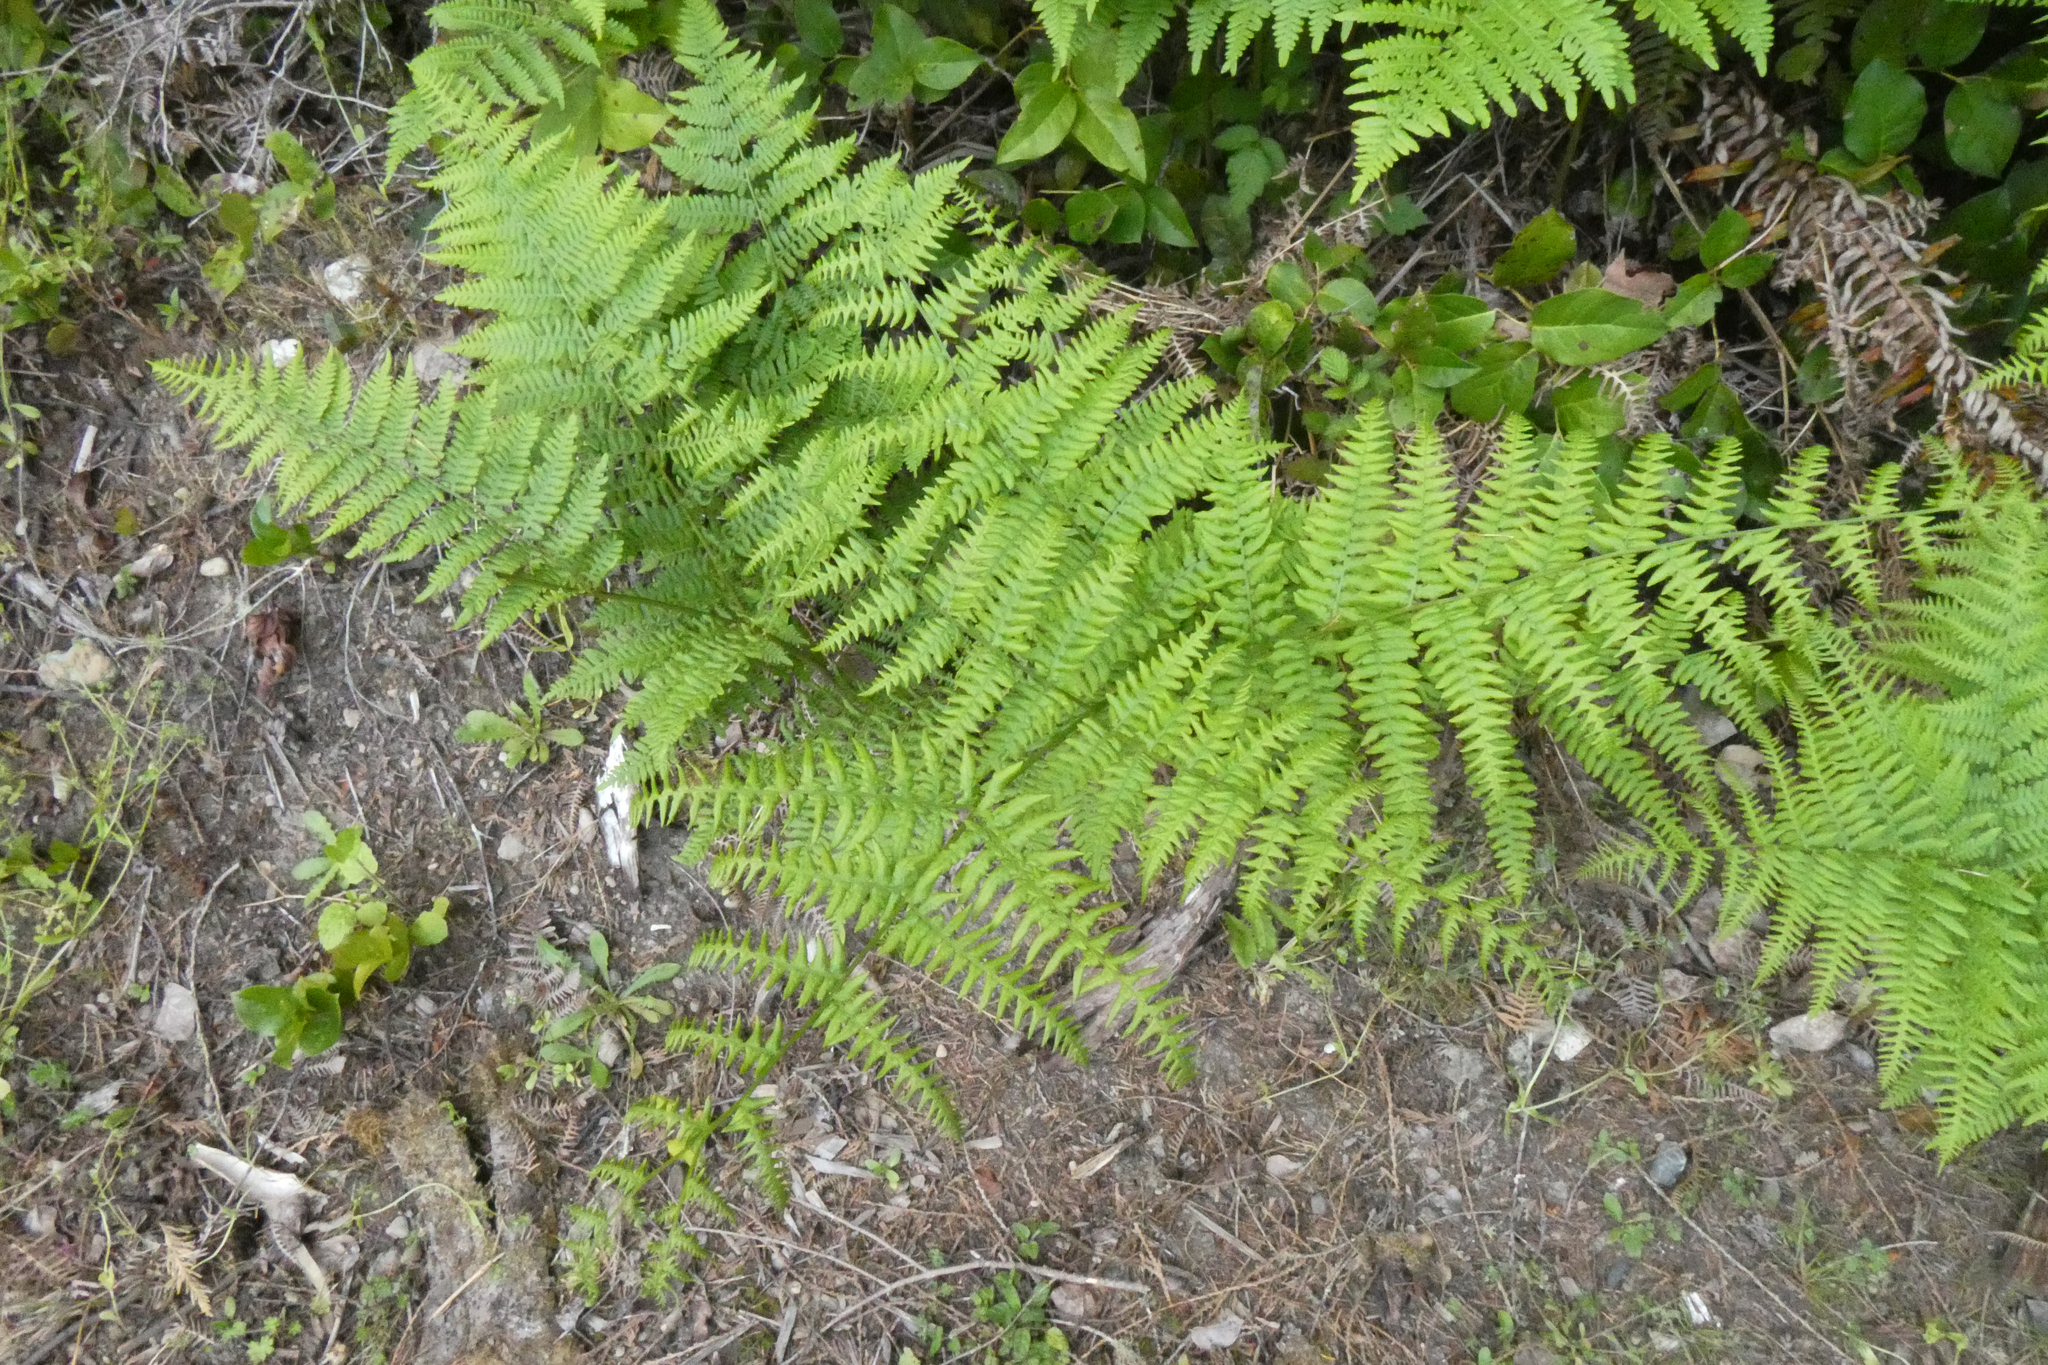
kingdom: Plantae
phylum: Tracheophyta
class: Polypodiopsida
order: Polypodiales
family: Dennstaedtiaceae
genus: Pteridium
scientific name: Pteridium aquilinum
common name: Bracken
